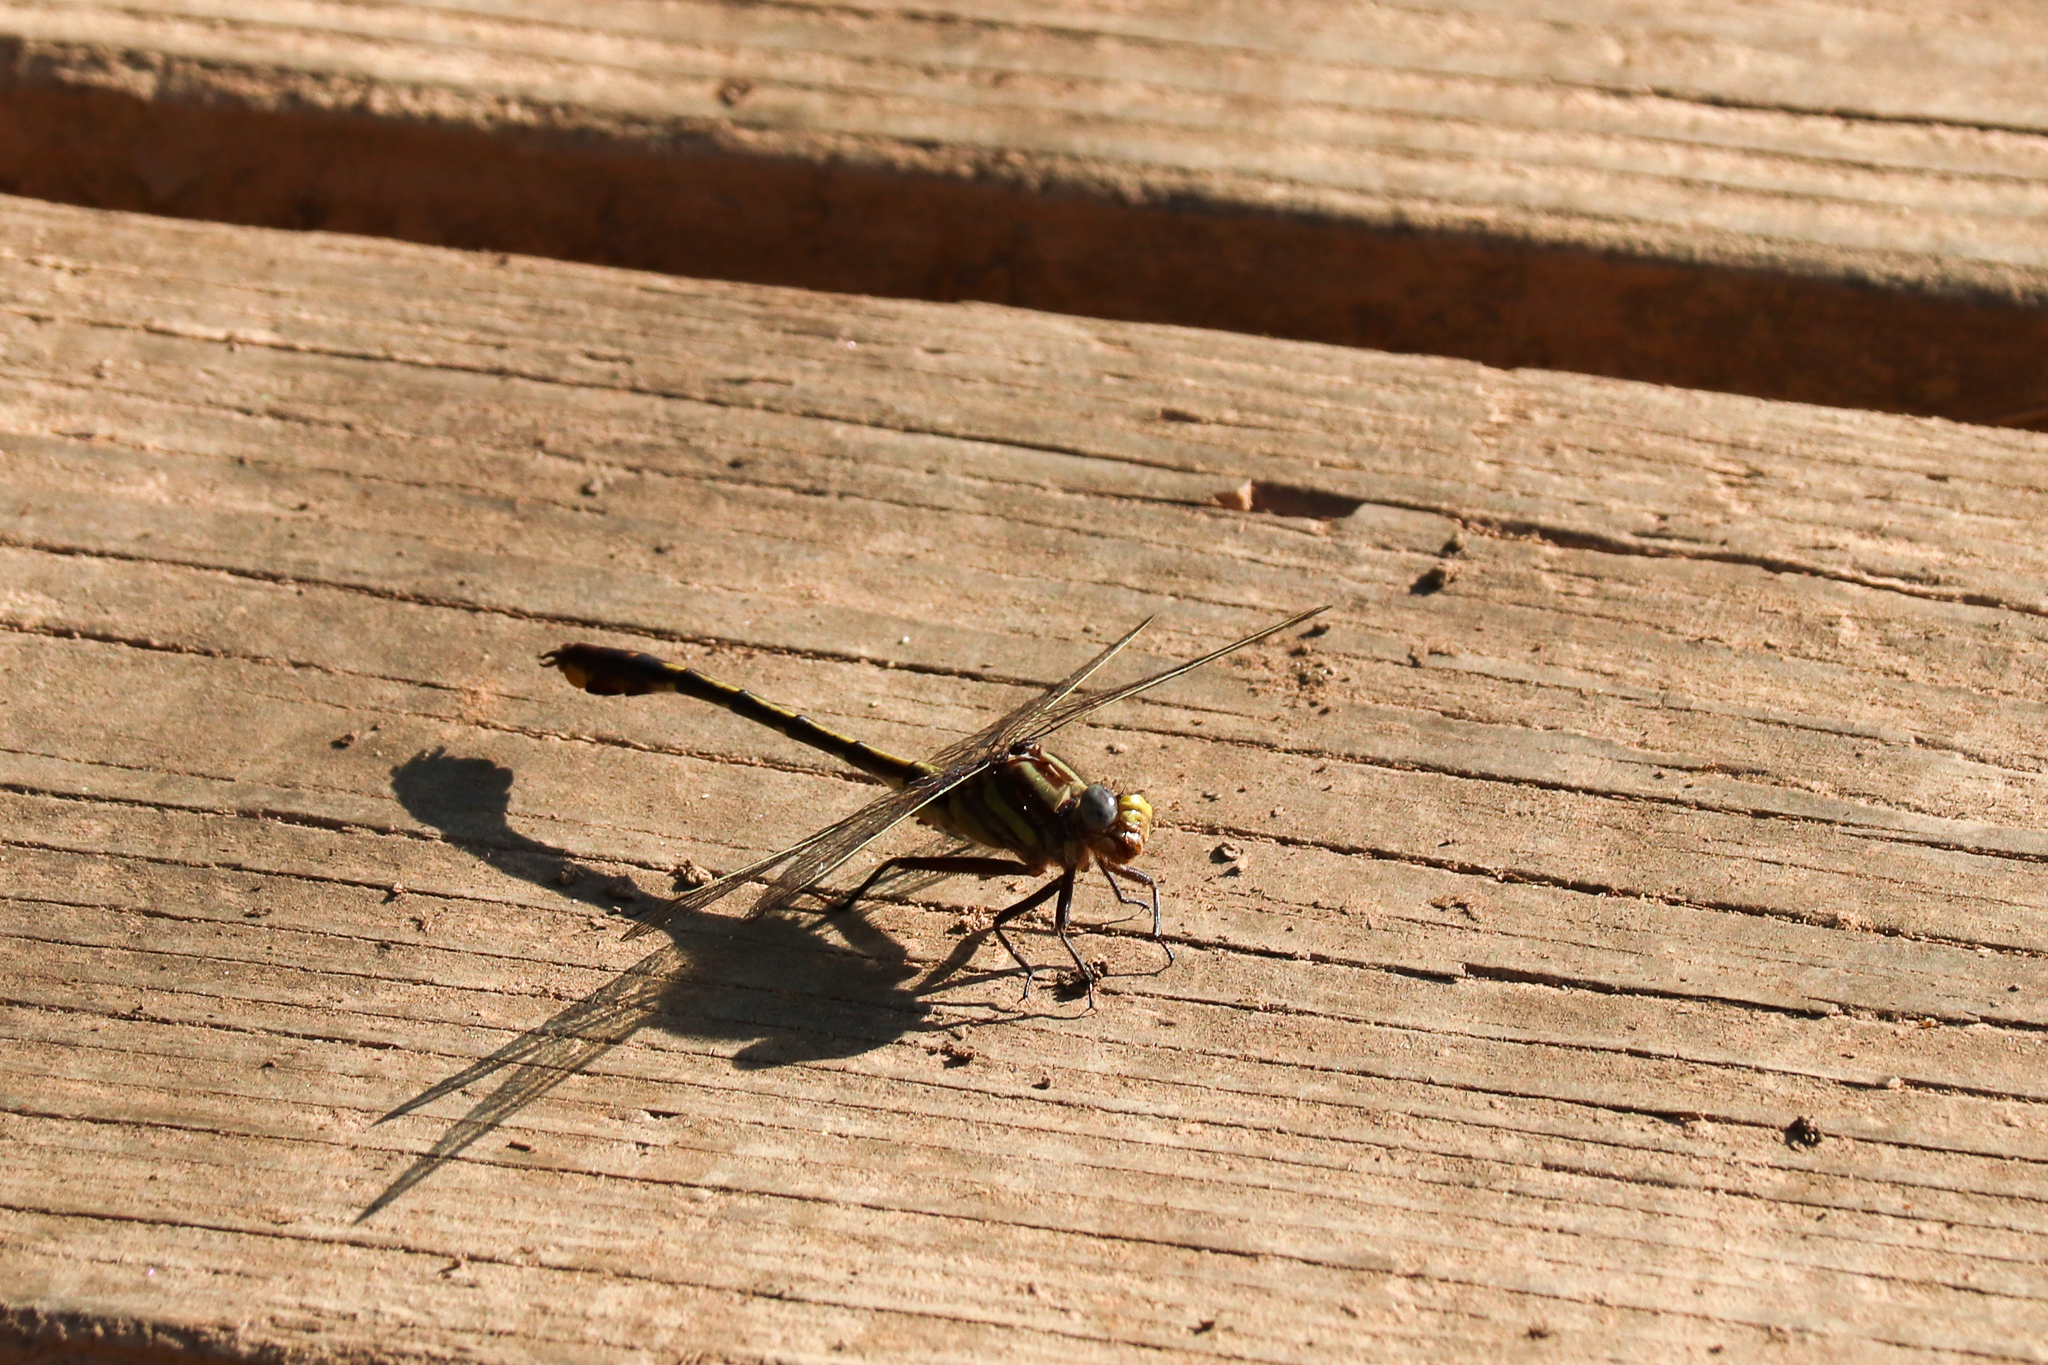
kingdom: Animalia
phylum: Arthropoda
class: Insecta
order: Odonata
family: Gomphidae
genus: Gomphurus
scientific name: Gomphurus hybridus
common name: Cocoa clubtail
